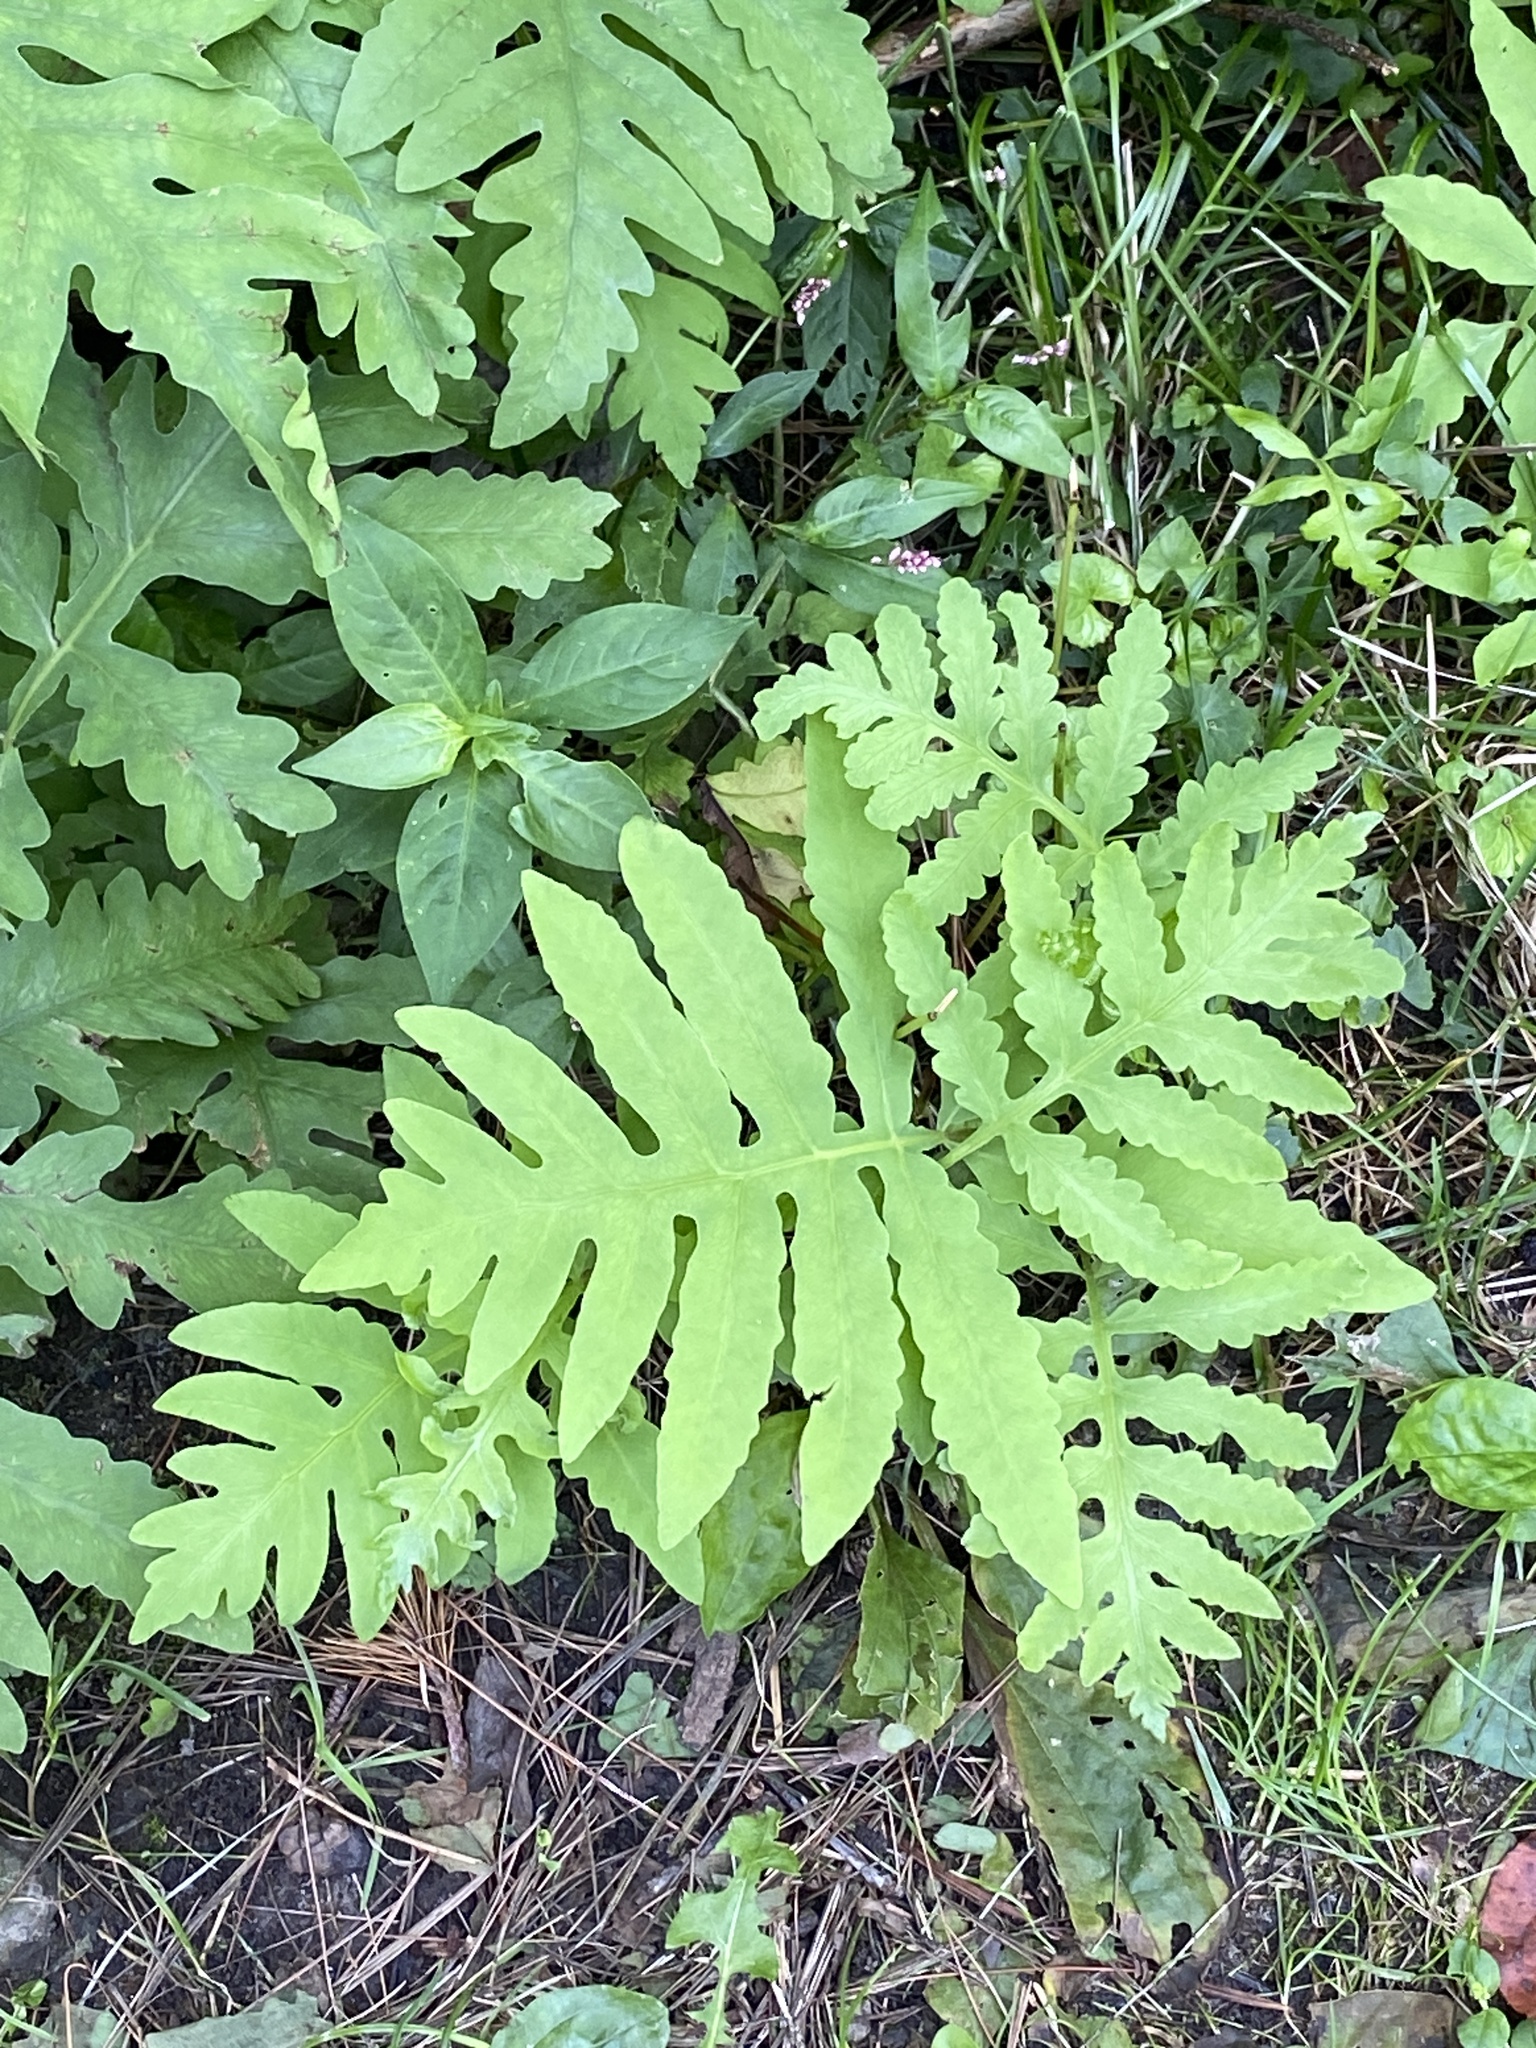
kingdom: Plantae
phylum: Tracheophyta
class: Polypodiopsida
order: Polypodiales
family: Onocleaceae
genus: Onoclea
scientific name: Onoclea sensibilis
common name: Sensitive fern
